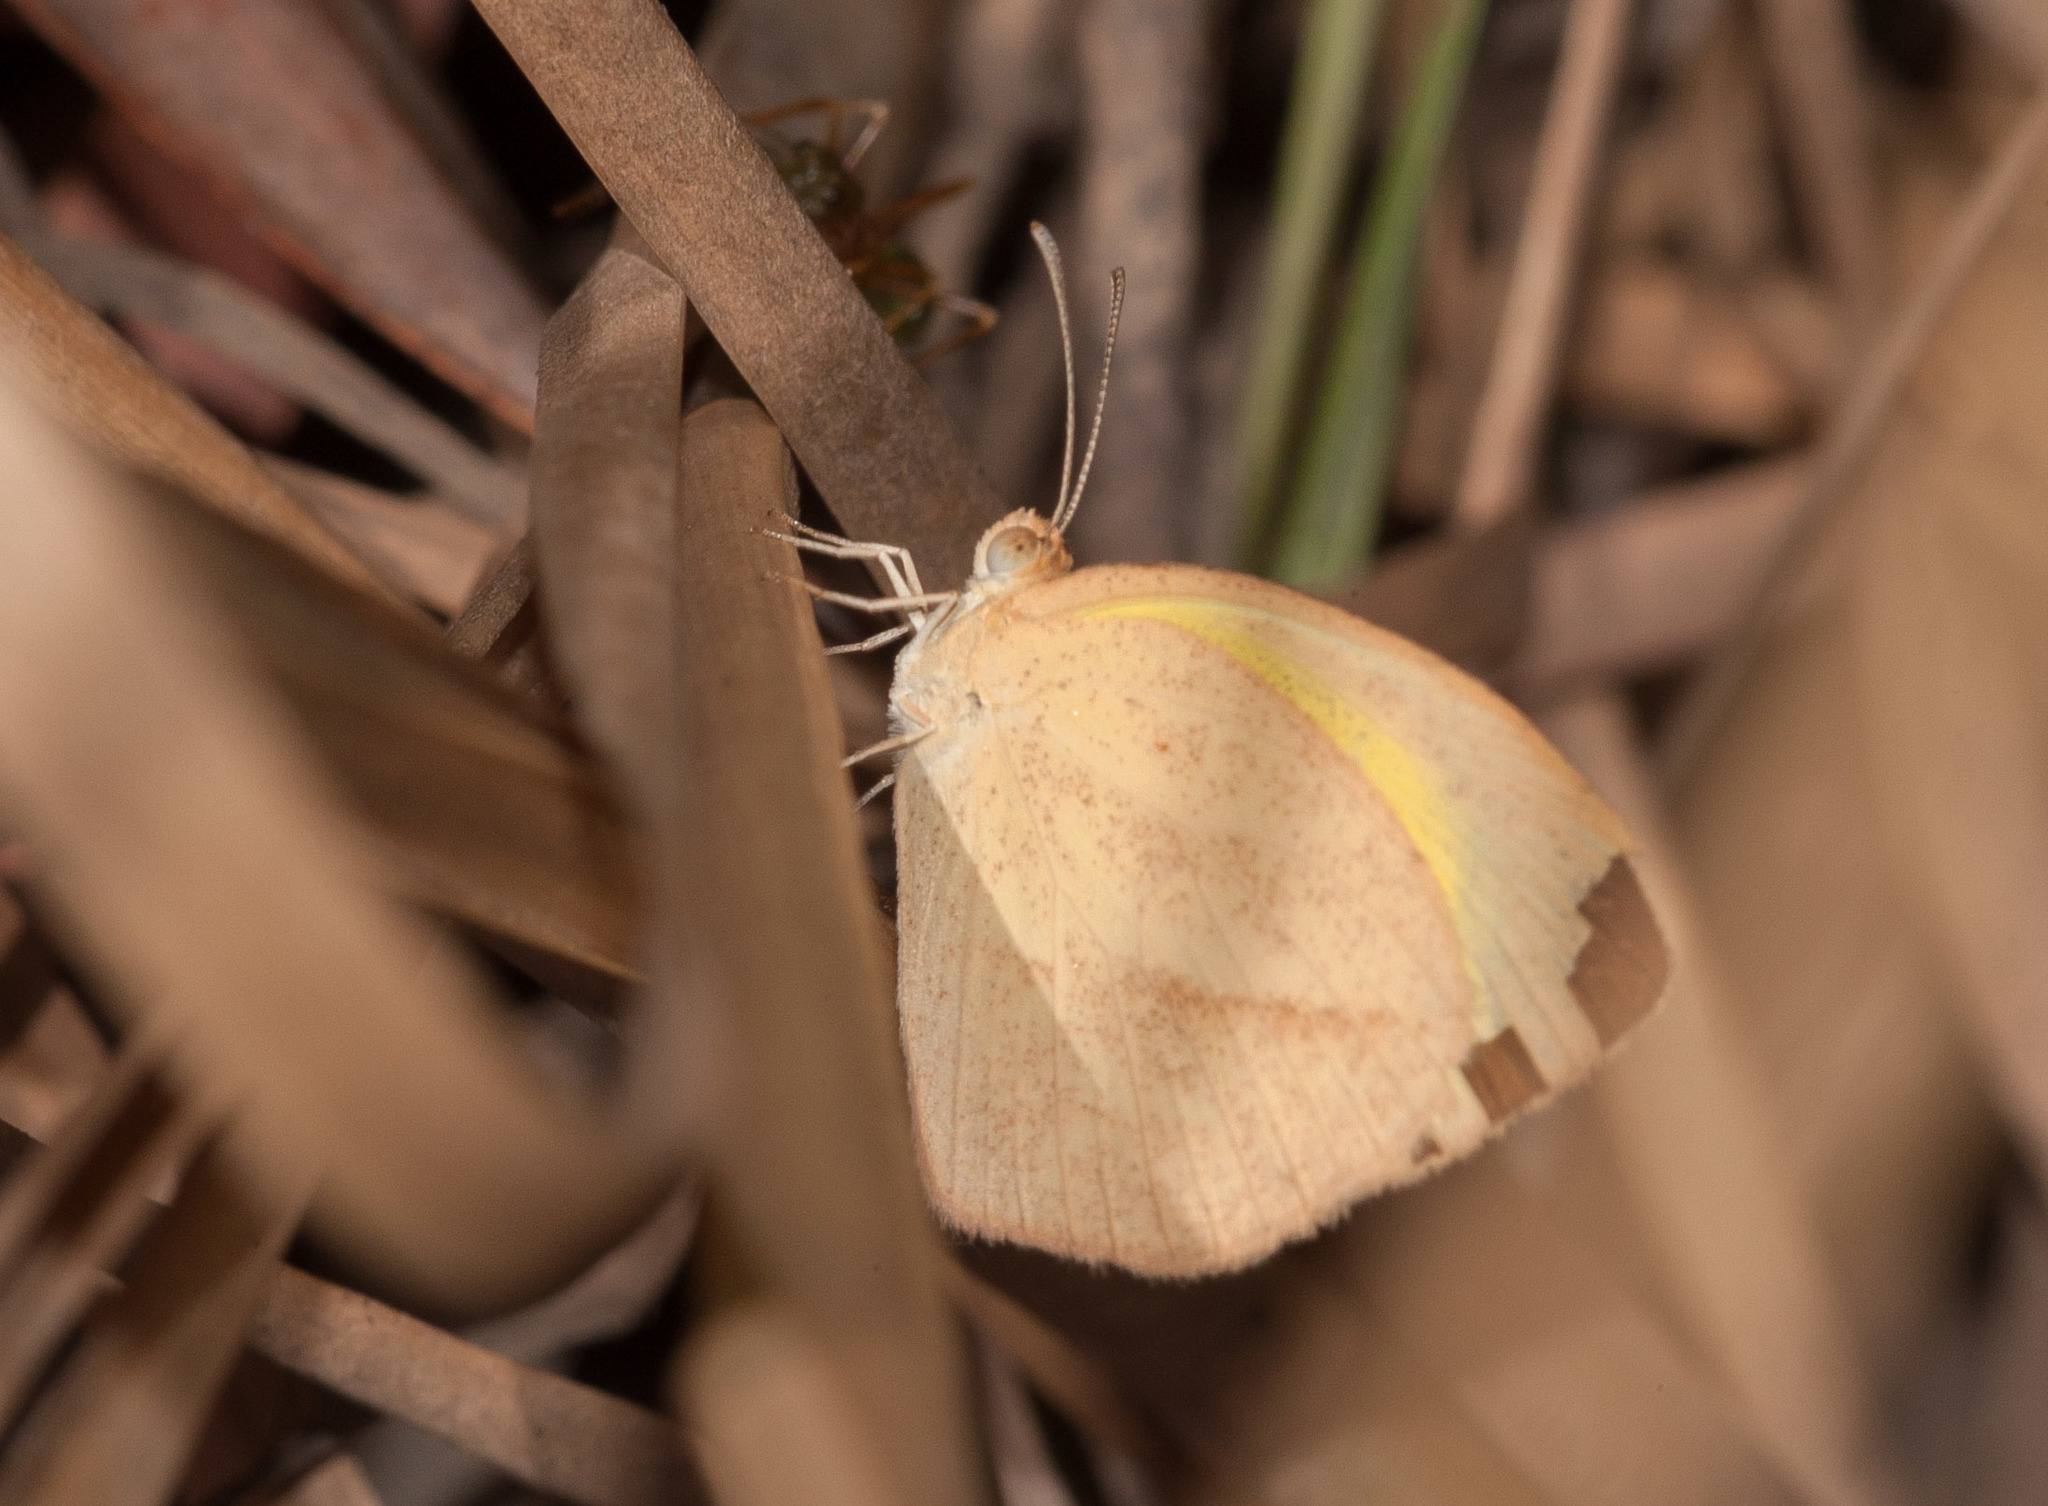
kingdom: Animalia
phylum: Arthropoda
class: Insecta
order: Lepidoptera
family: Pieridae
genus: Eurema
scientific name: Eurema laeta
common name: Spotless grass yellow
